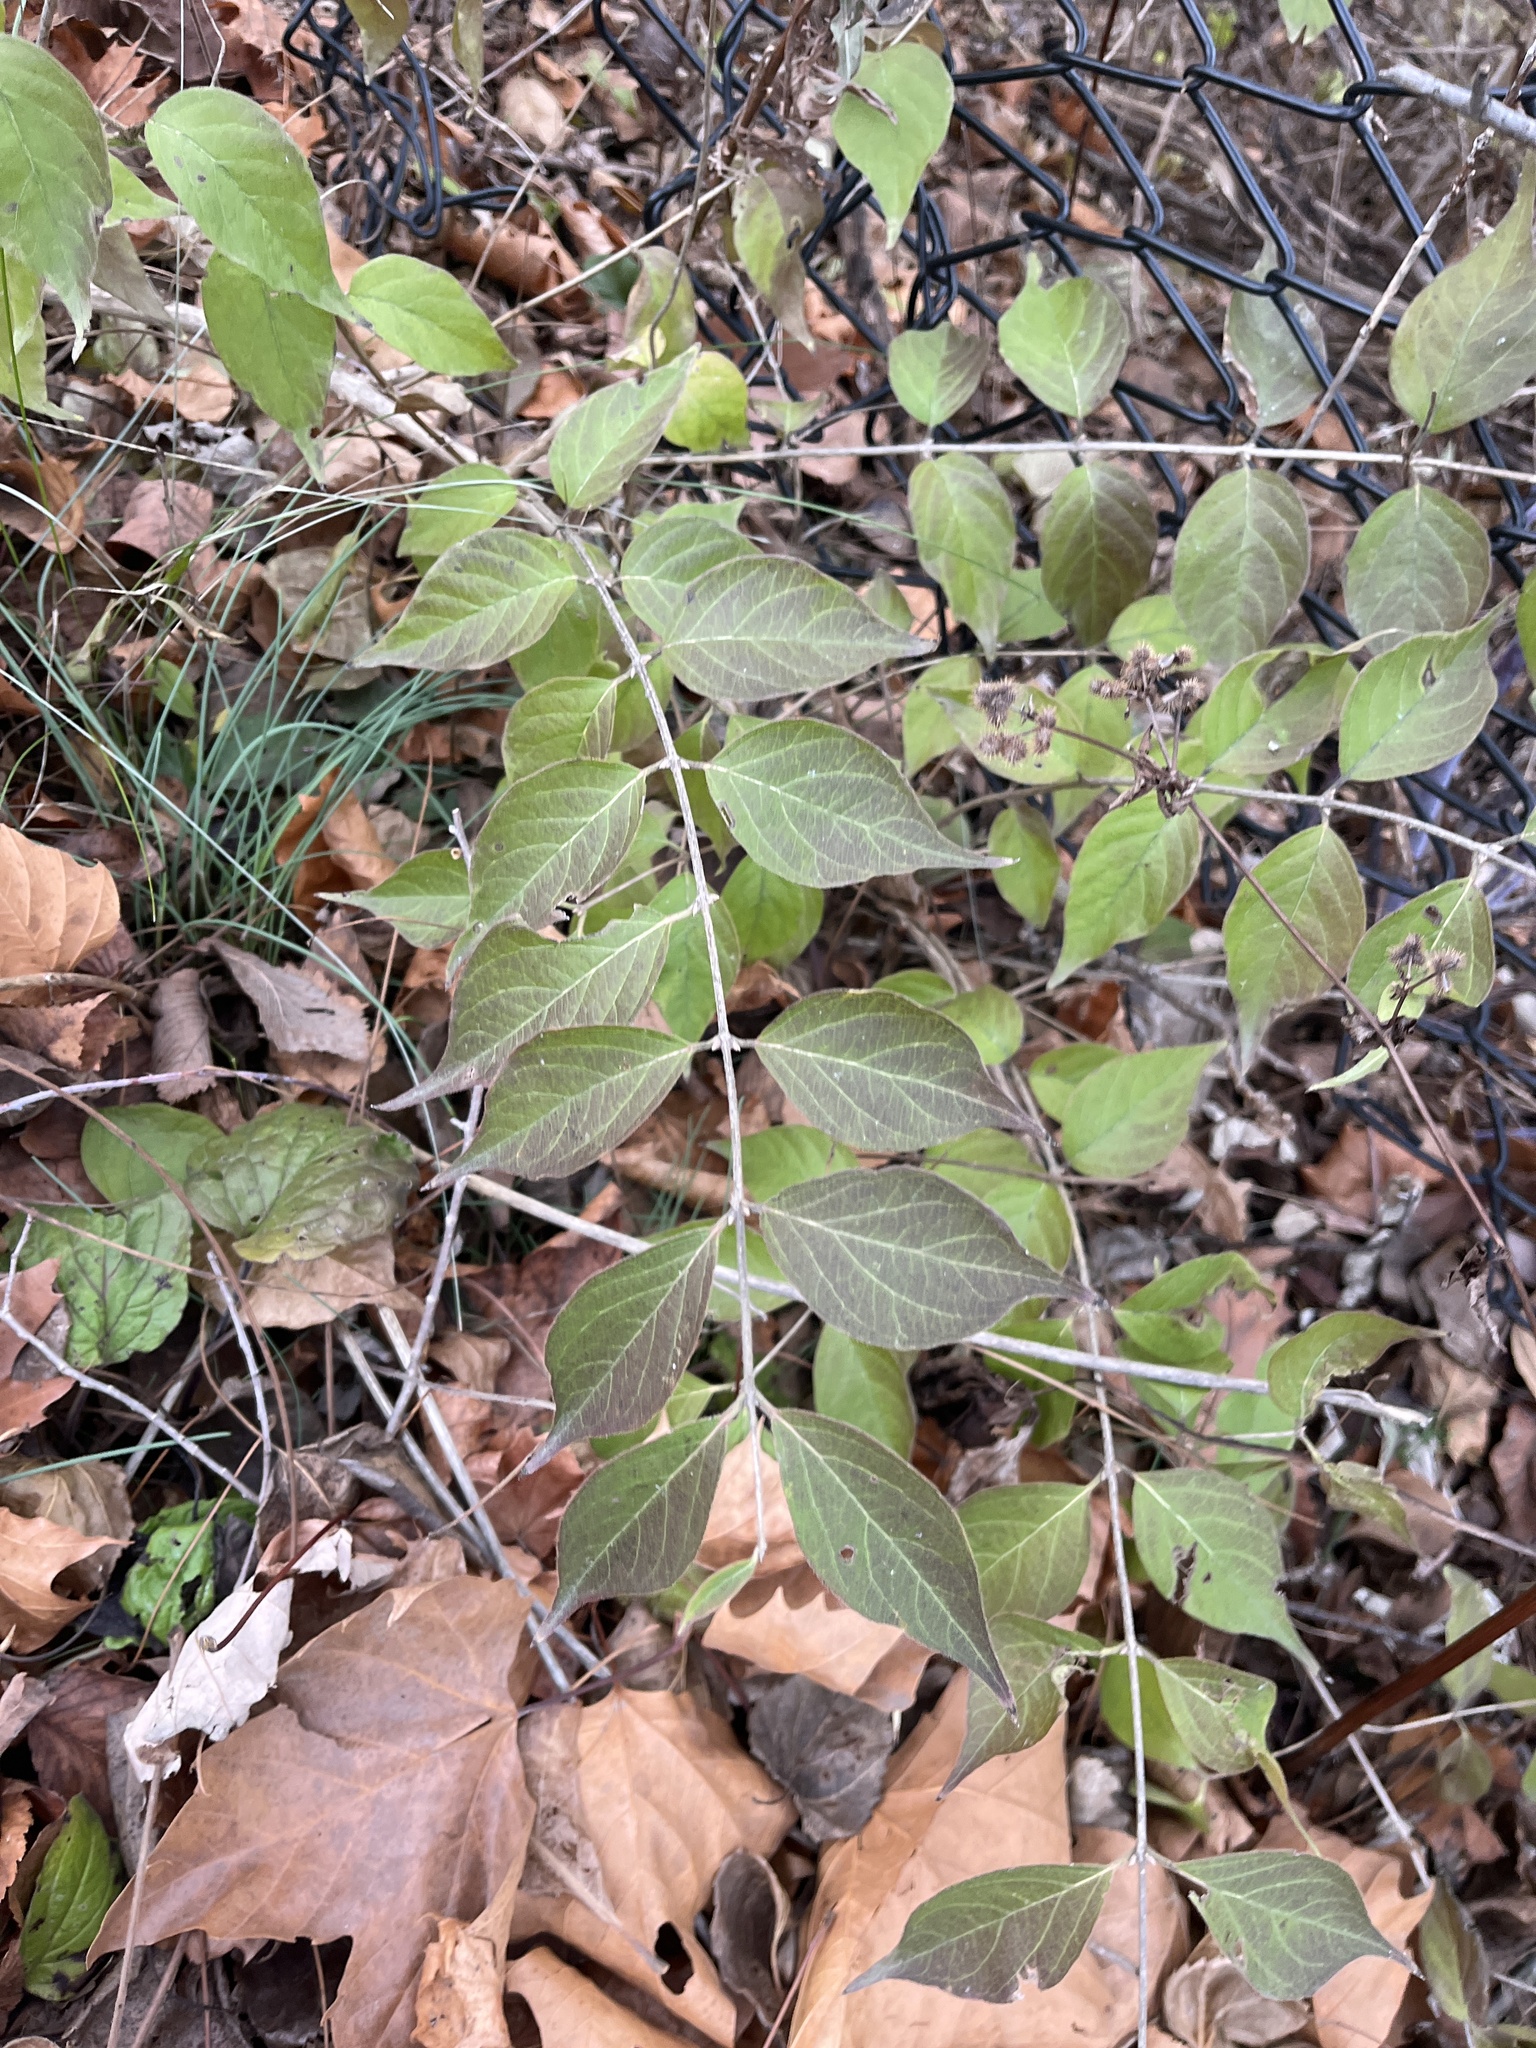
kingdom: Plantae
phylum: Tracheophyta
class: Magnoliopsida
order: Dipsacales
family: Caprifoliaceae
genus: Lonicera
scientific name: Lonicera maackii
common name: Amur honeysuckle
